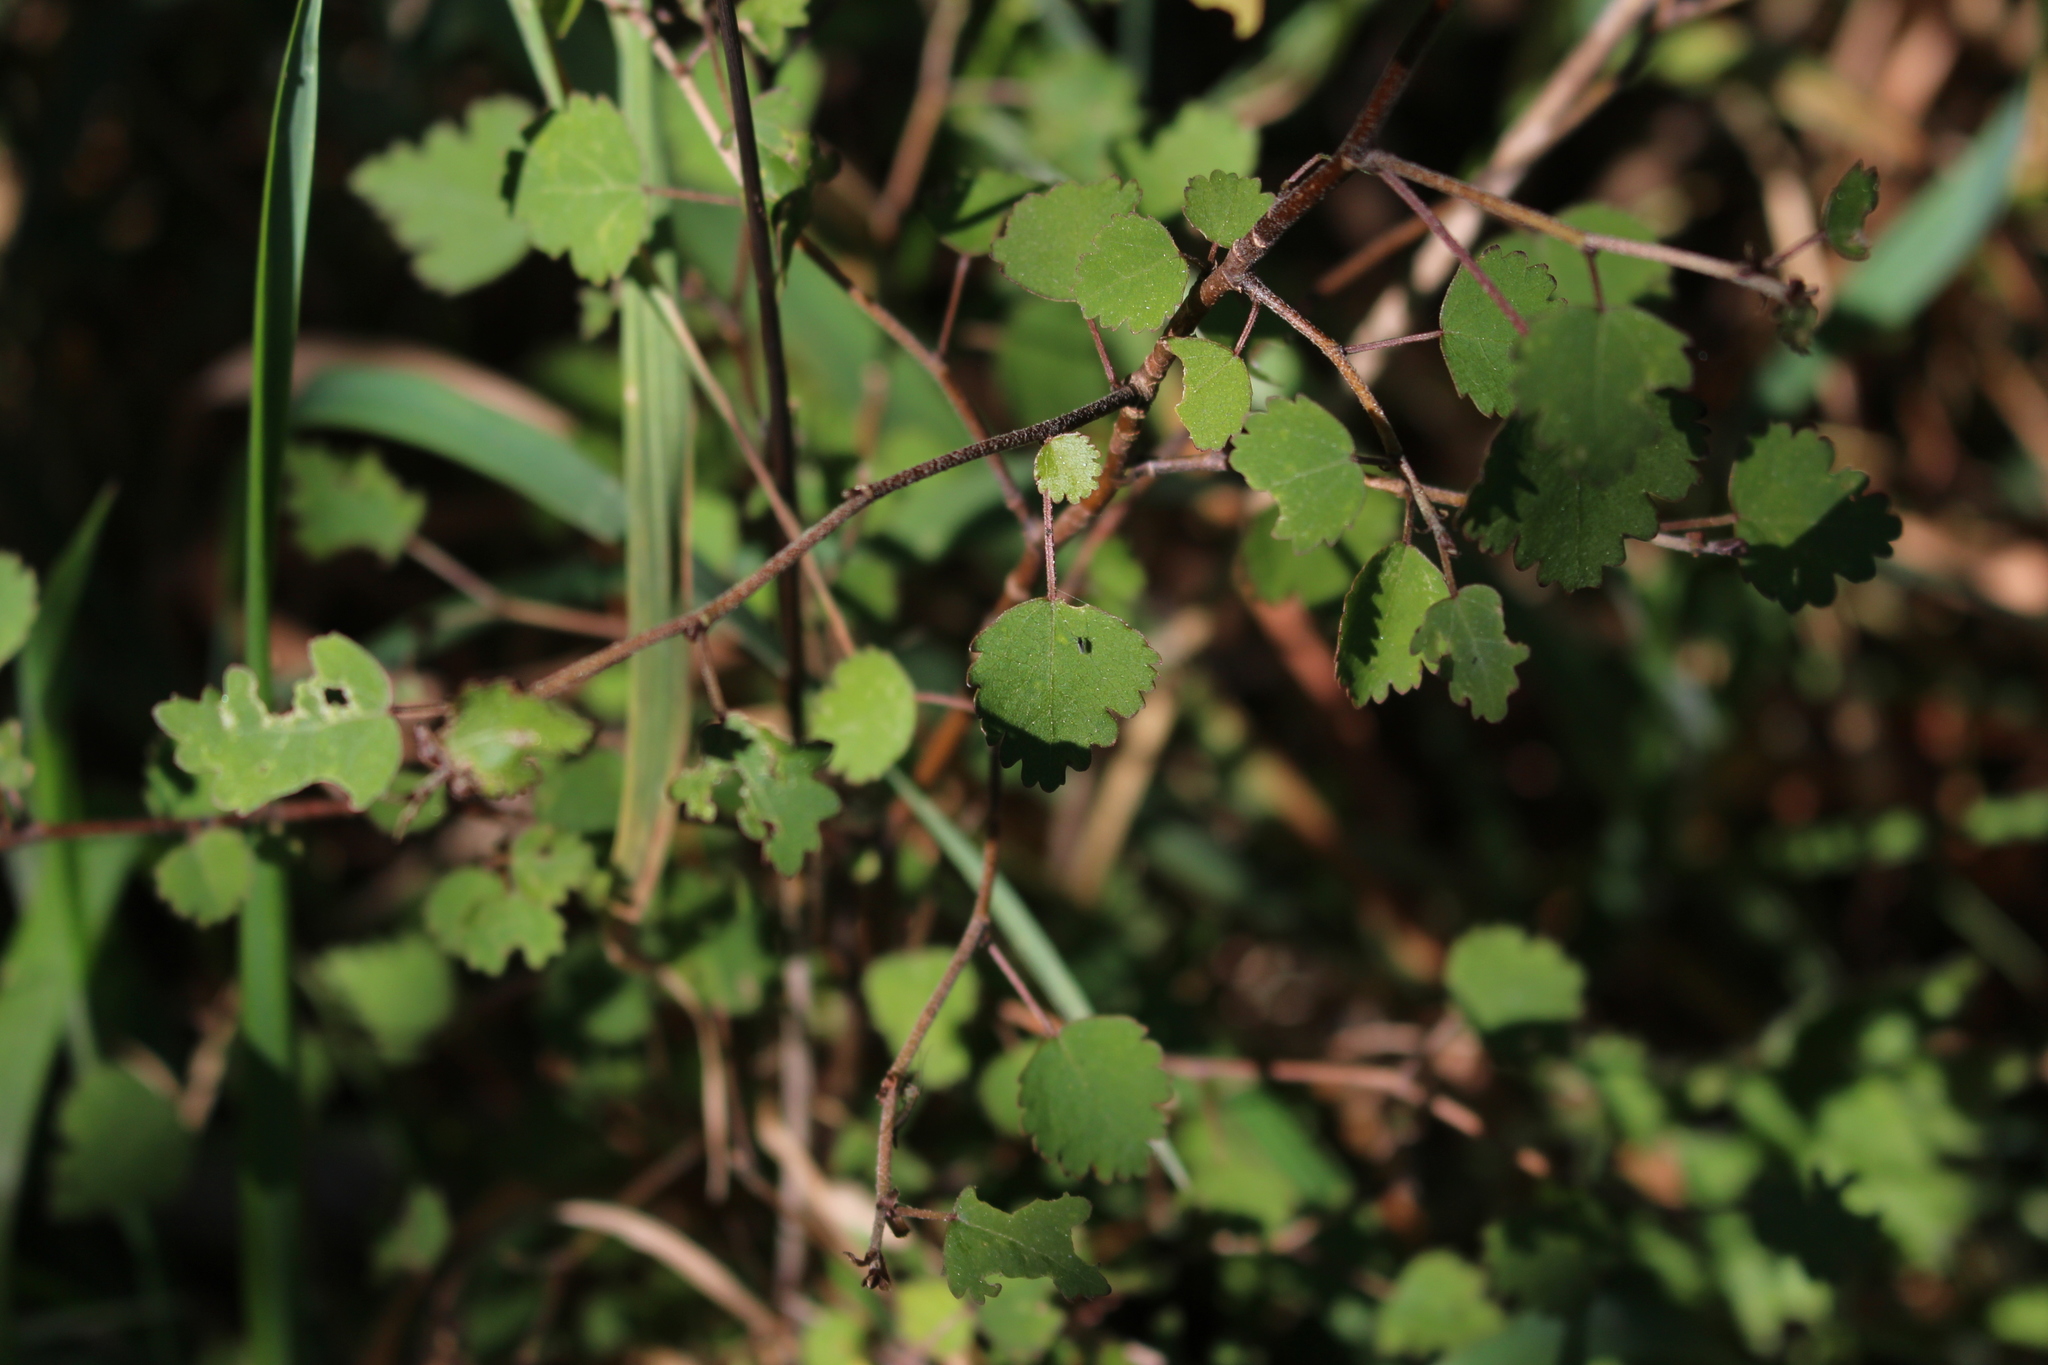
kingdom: Plantae
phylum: Tracheophyta
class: Magnoliopsida
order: Malvales
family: Malvaceae
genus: Plagianthus
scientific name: Plagianthus regius
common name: Manatu
